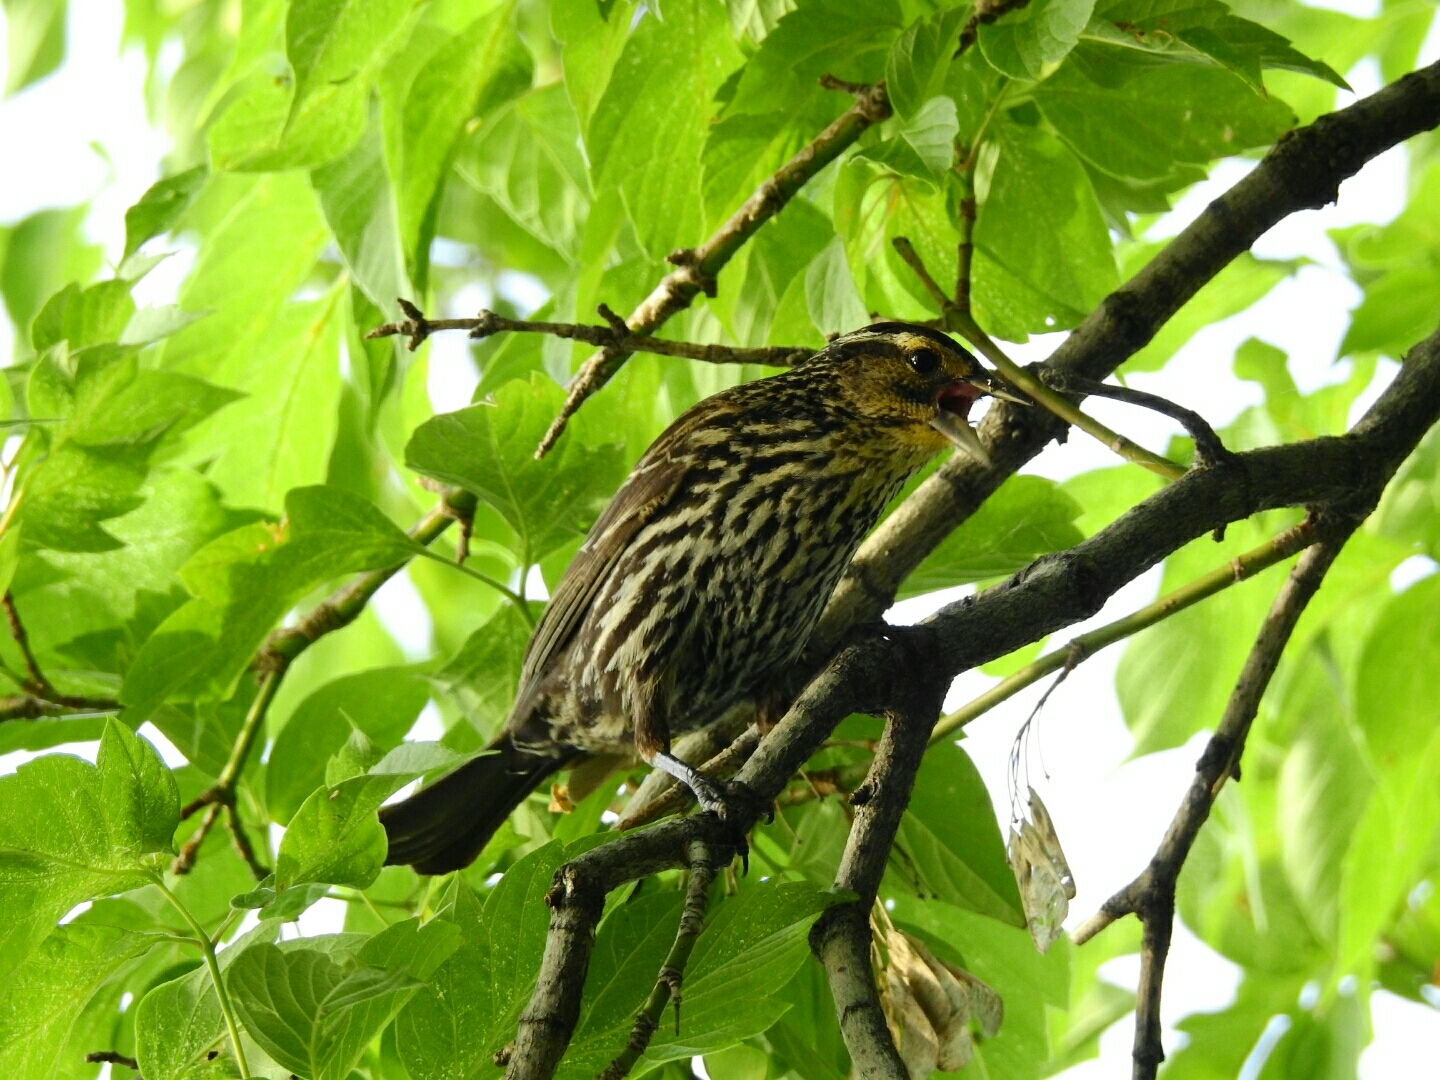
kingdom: Animalia
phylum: Chordata
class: Aves
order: Passeriformes
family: Icteridae
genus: Agelaius
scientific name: Agelaius phoeniceus
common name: Red-winged blackbird
